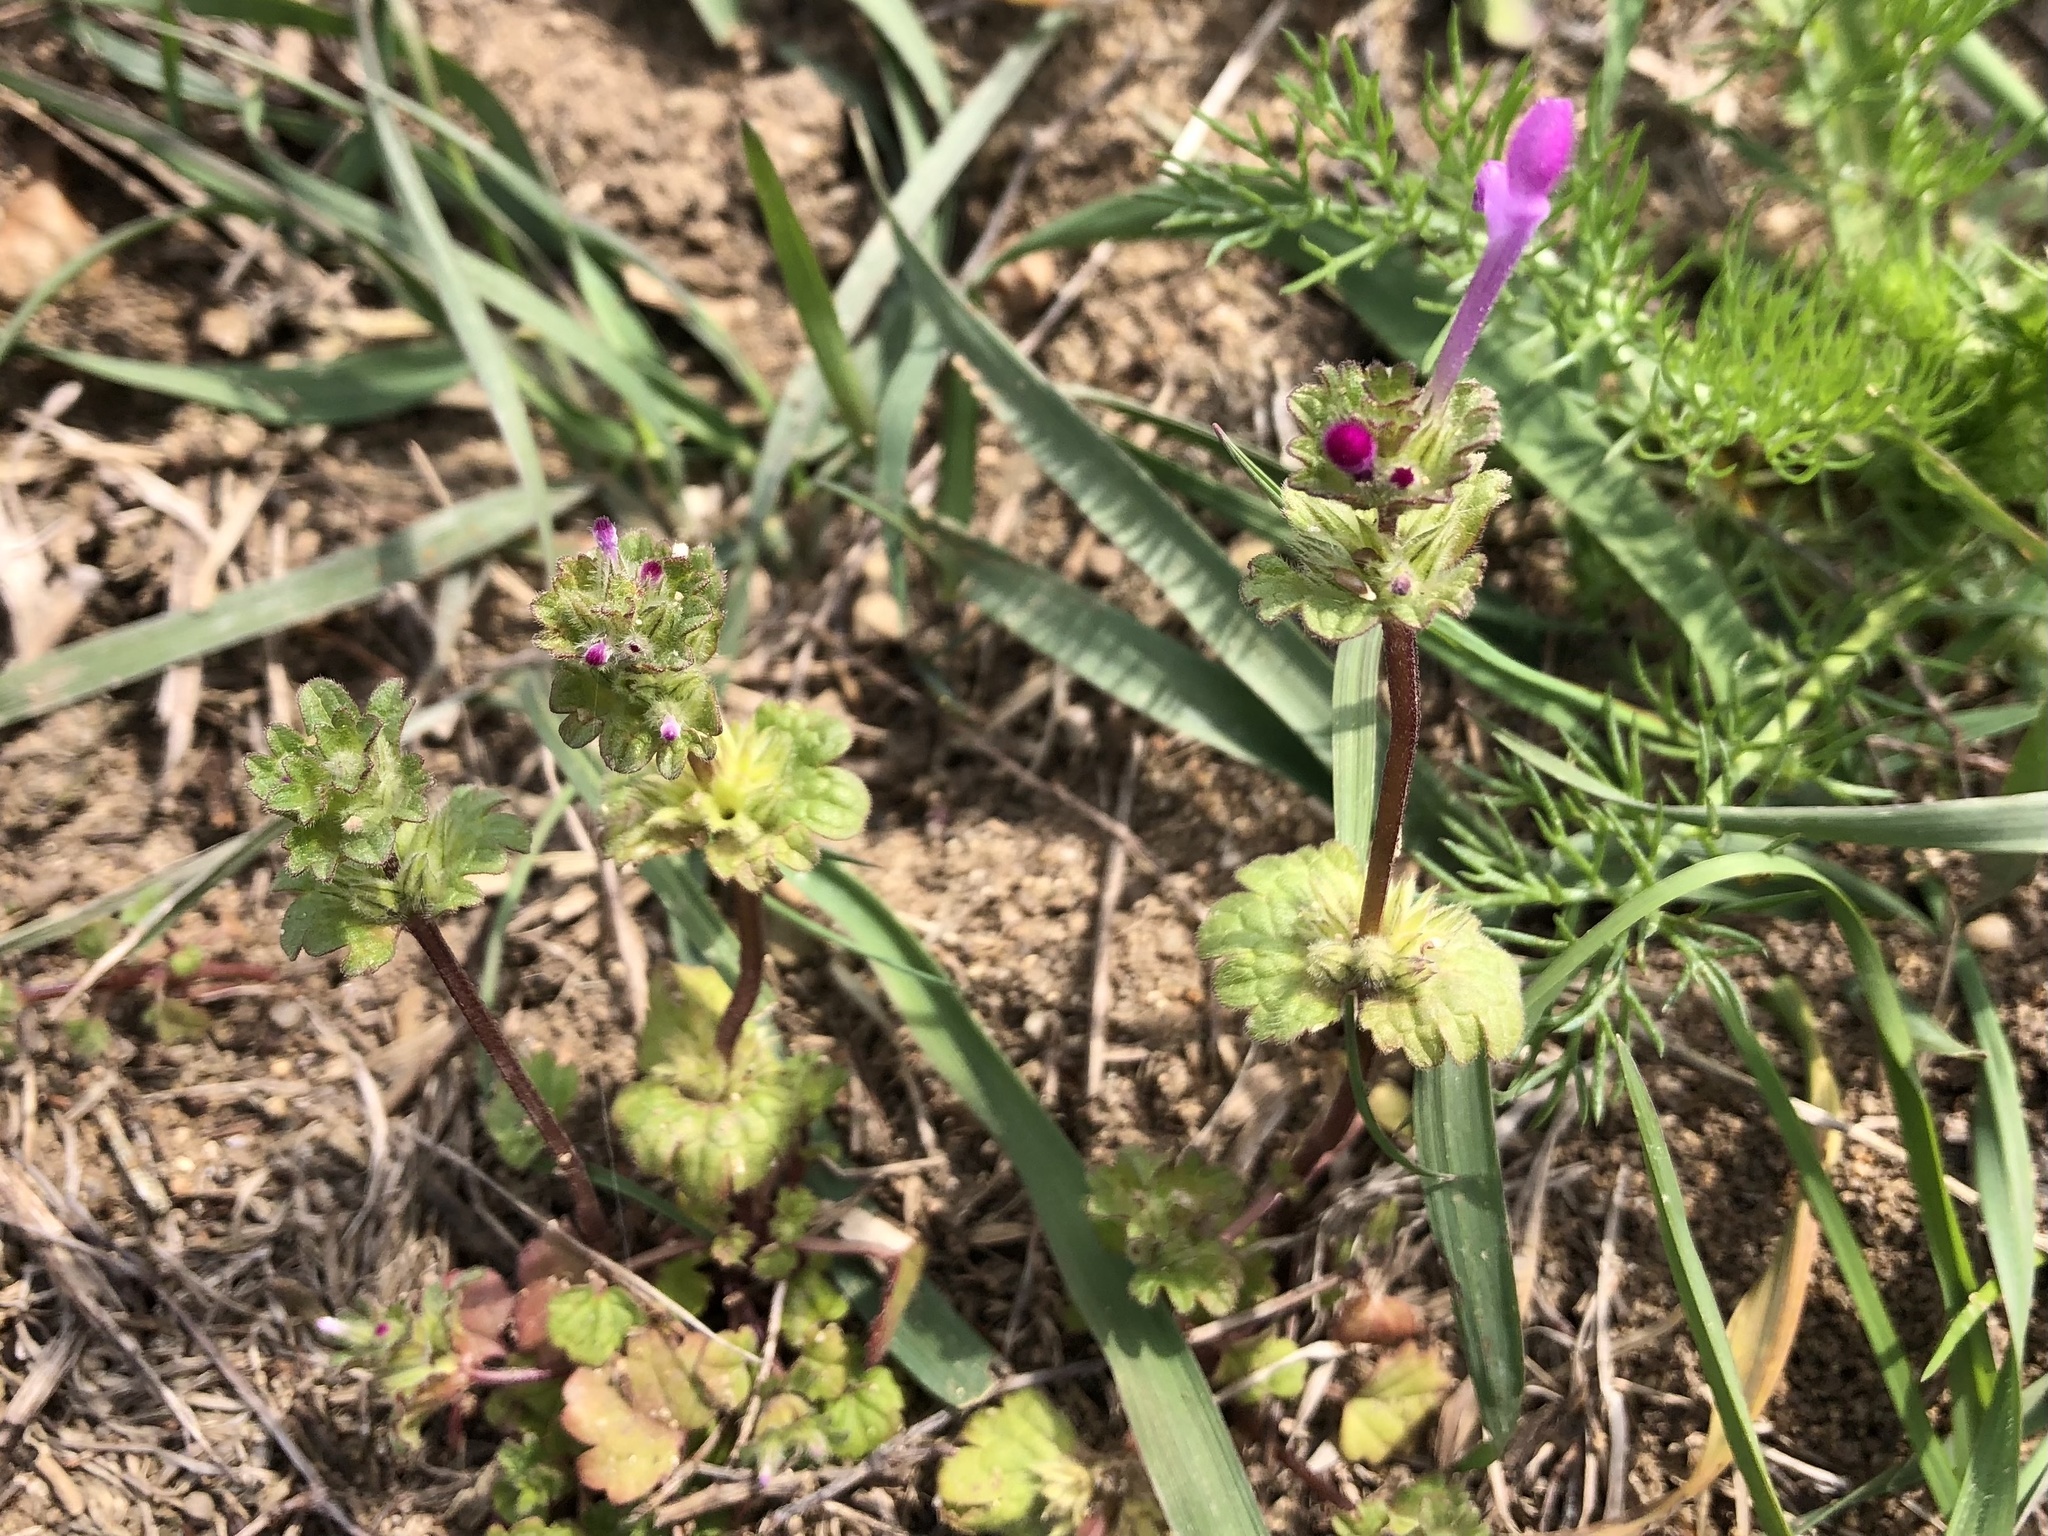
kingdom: Plantae
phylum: Tracheophyta
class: Magnoliopsida
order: Lamiales
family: Lamiaceae
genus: Lamium
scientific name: Lamium amplexicaule
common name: Henbit dead-nettle
